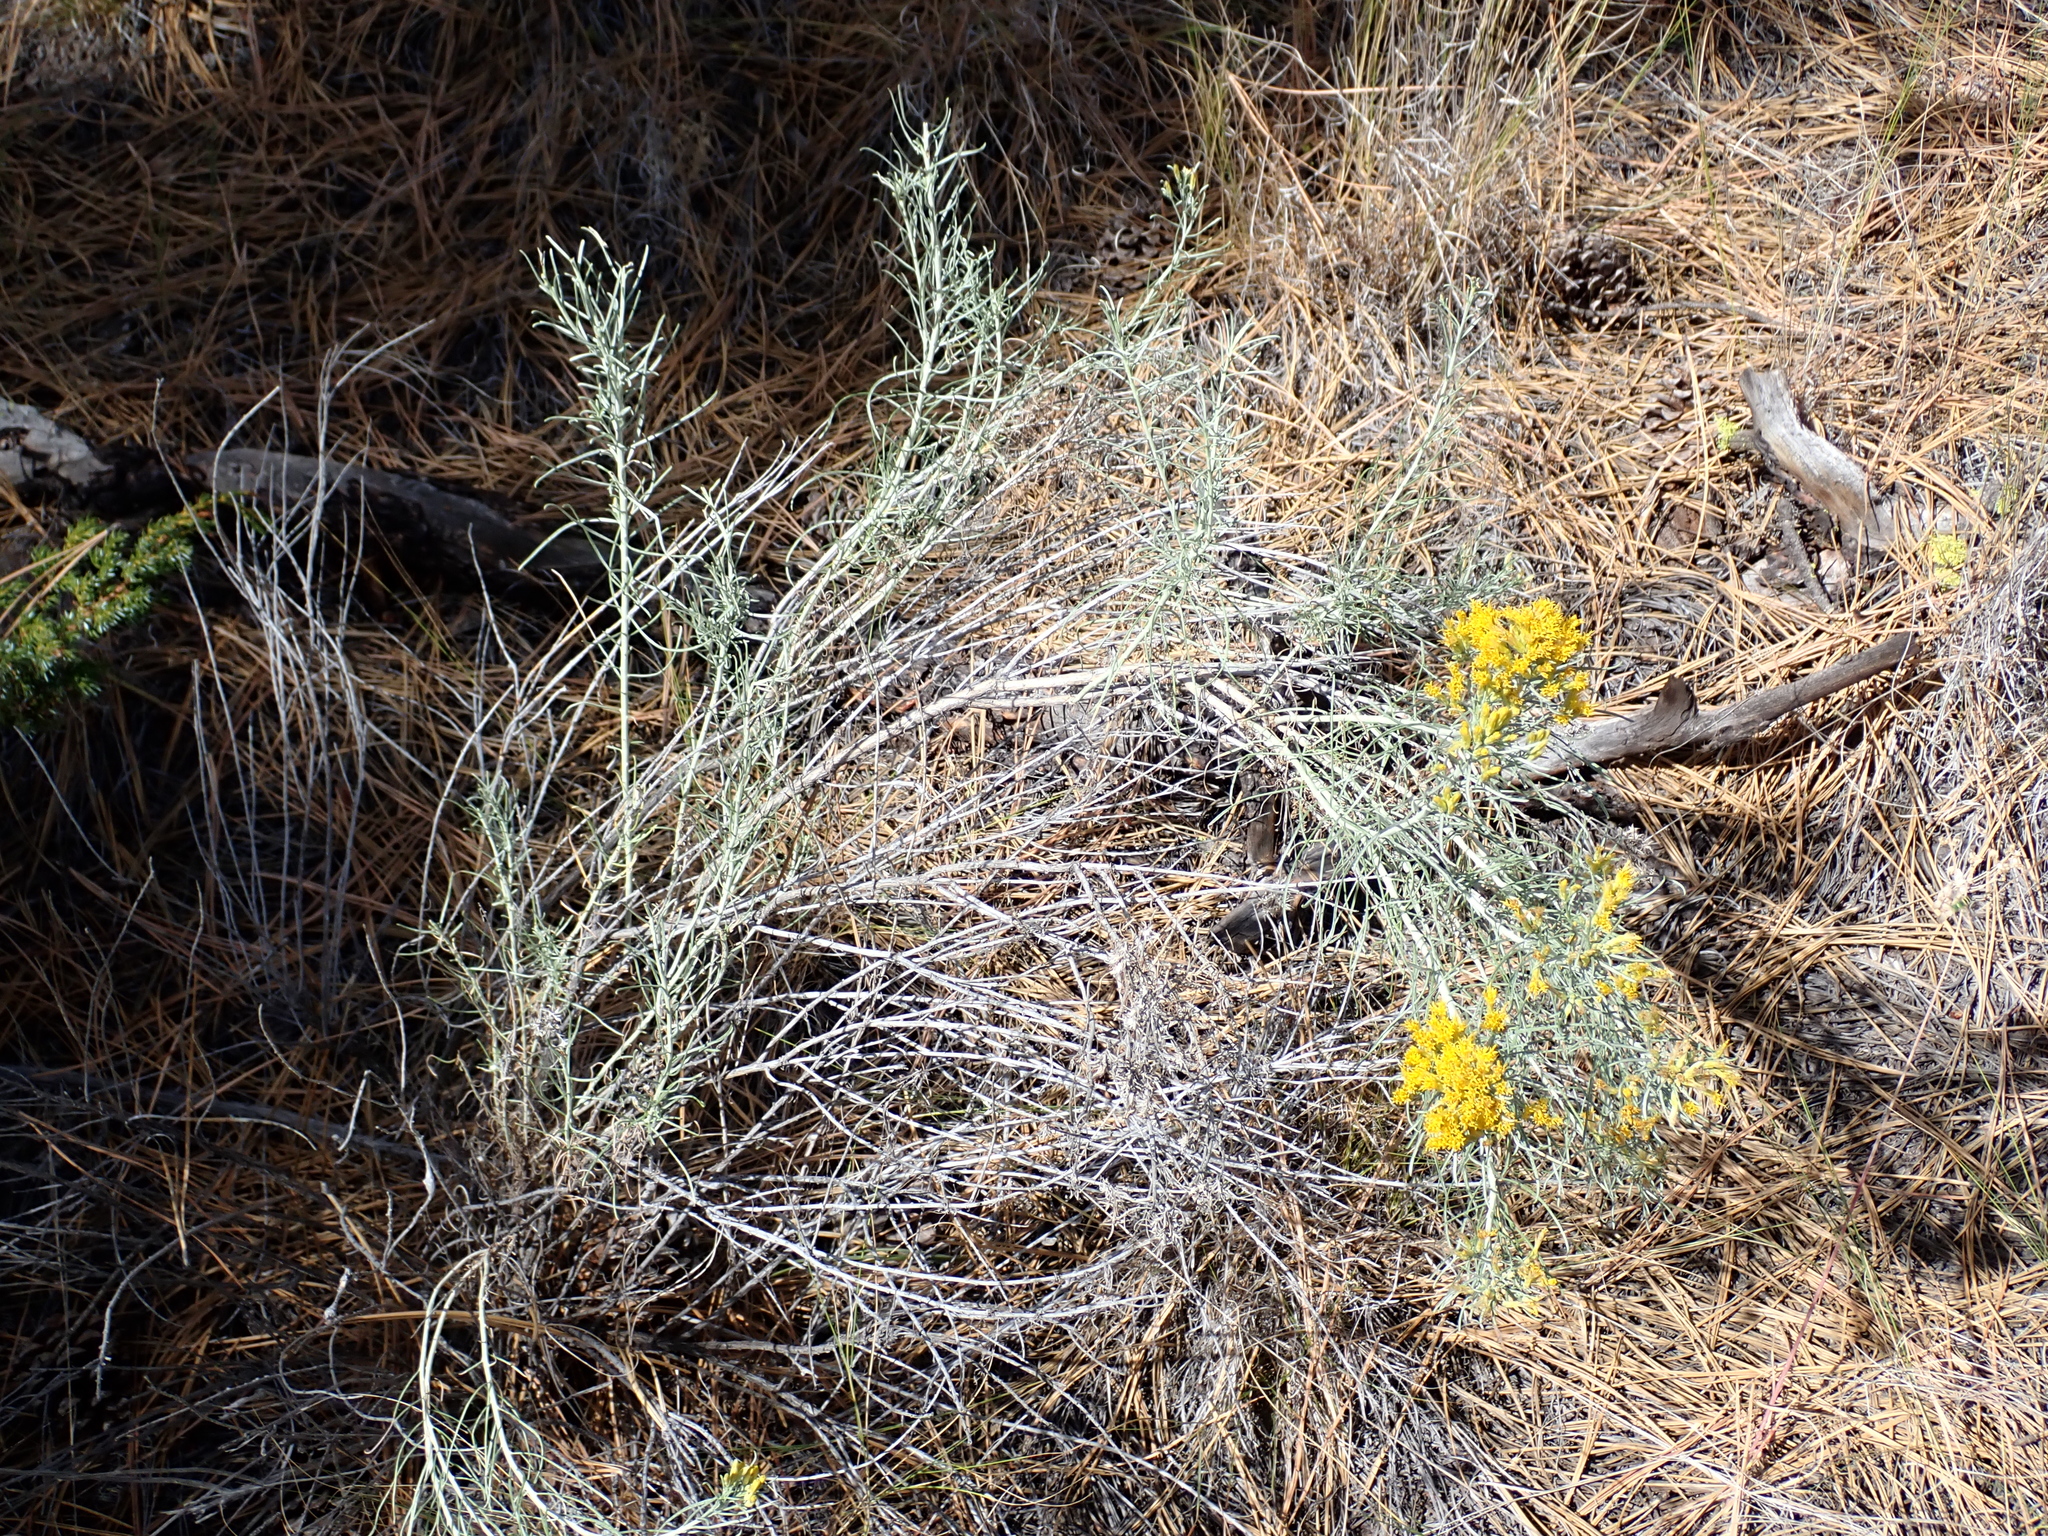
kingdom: Plantae
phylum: Tracheophyta
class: Magnoliopsida
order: Asterales
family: Asteraceae
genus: Ericameria
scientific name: Ericameria nauseosa
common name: Rubber rabbitbrush
